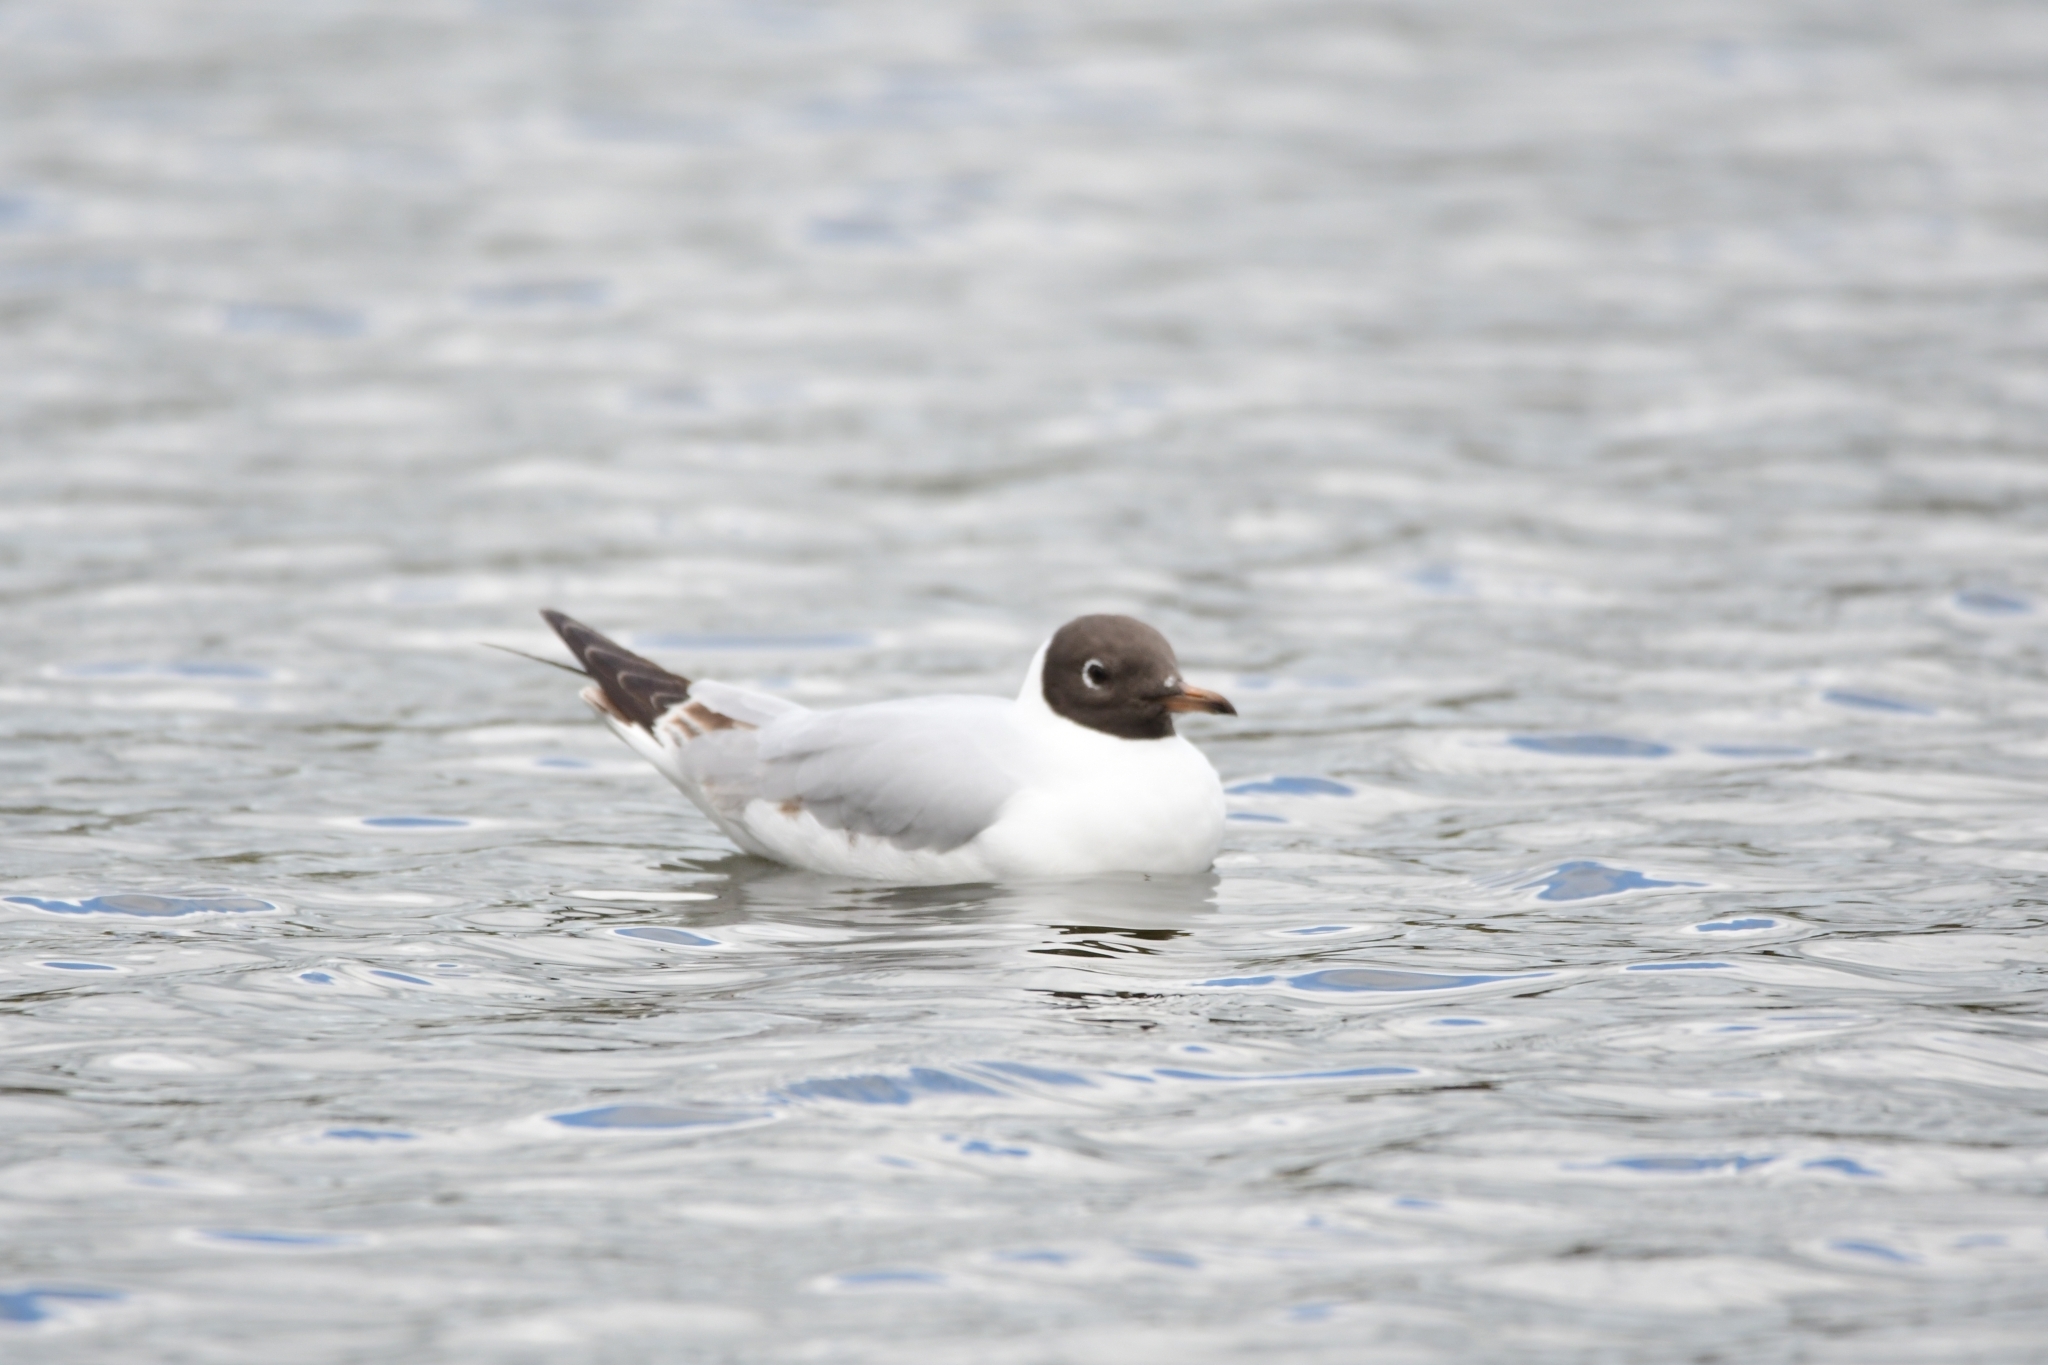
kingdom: Animalia
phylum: Chordata
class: Aves
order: Charadriiformes
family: Laridae
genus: Chroicocephalus
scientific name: Chroicocephalus ridibundus
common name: Black-headed gull
